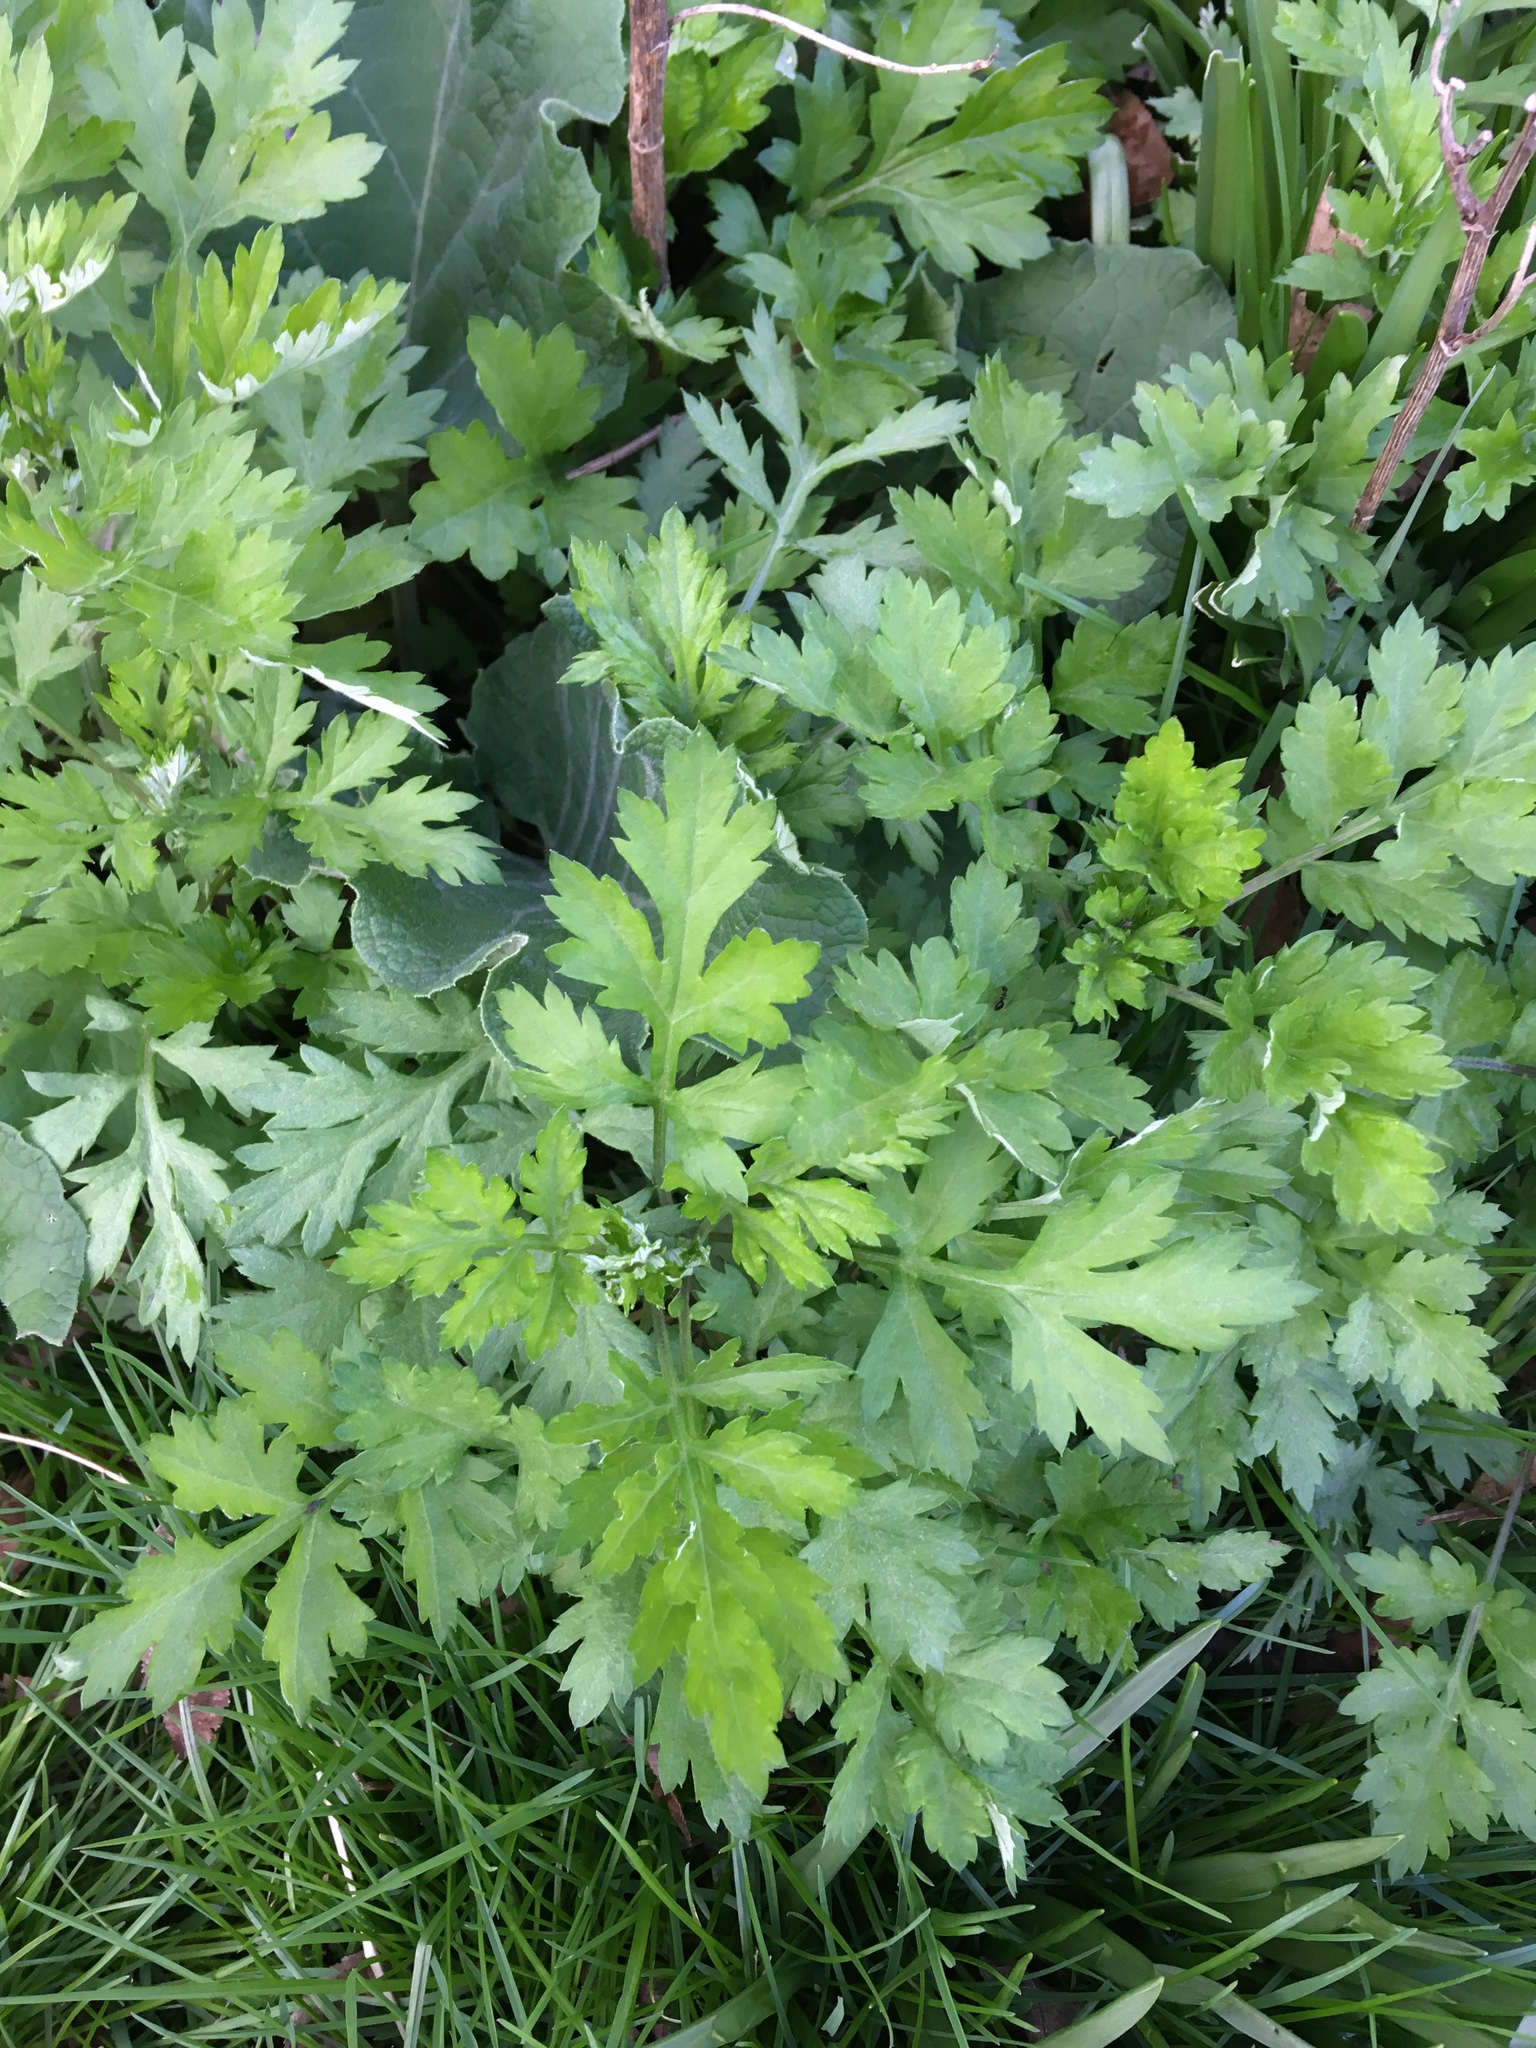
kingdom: Plantae
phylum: Tracheophyta
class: Magnoliopsida
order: Asterales
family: Asteraceae
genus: Artemisia
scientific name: Artemisia vulgaris
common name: Mugwort
